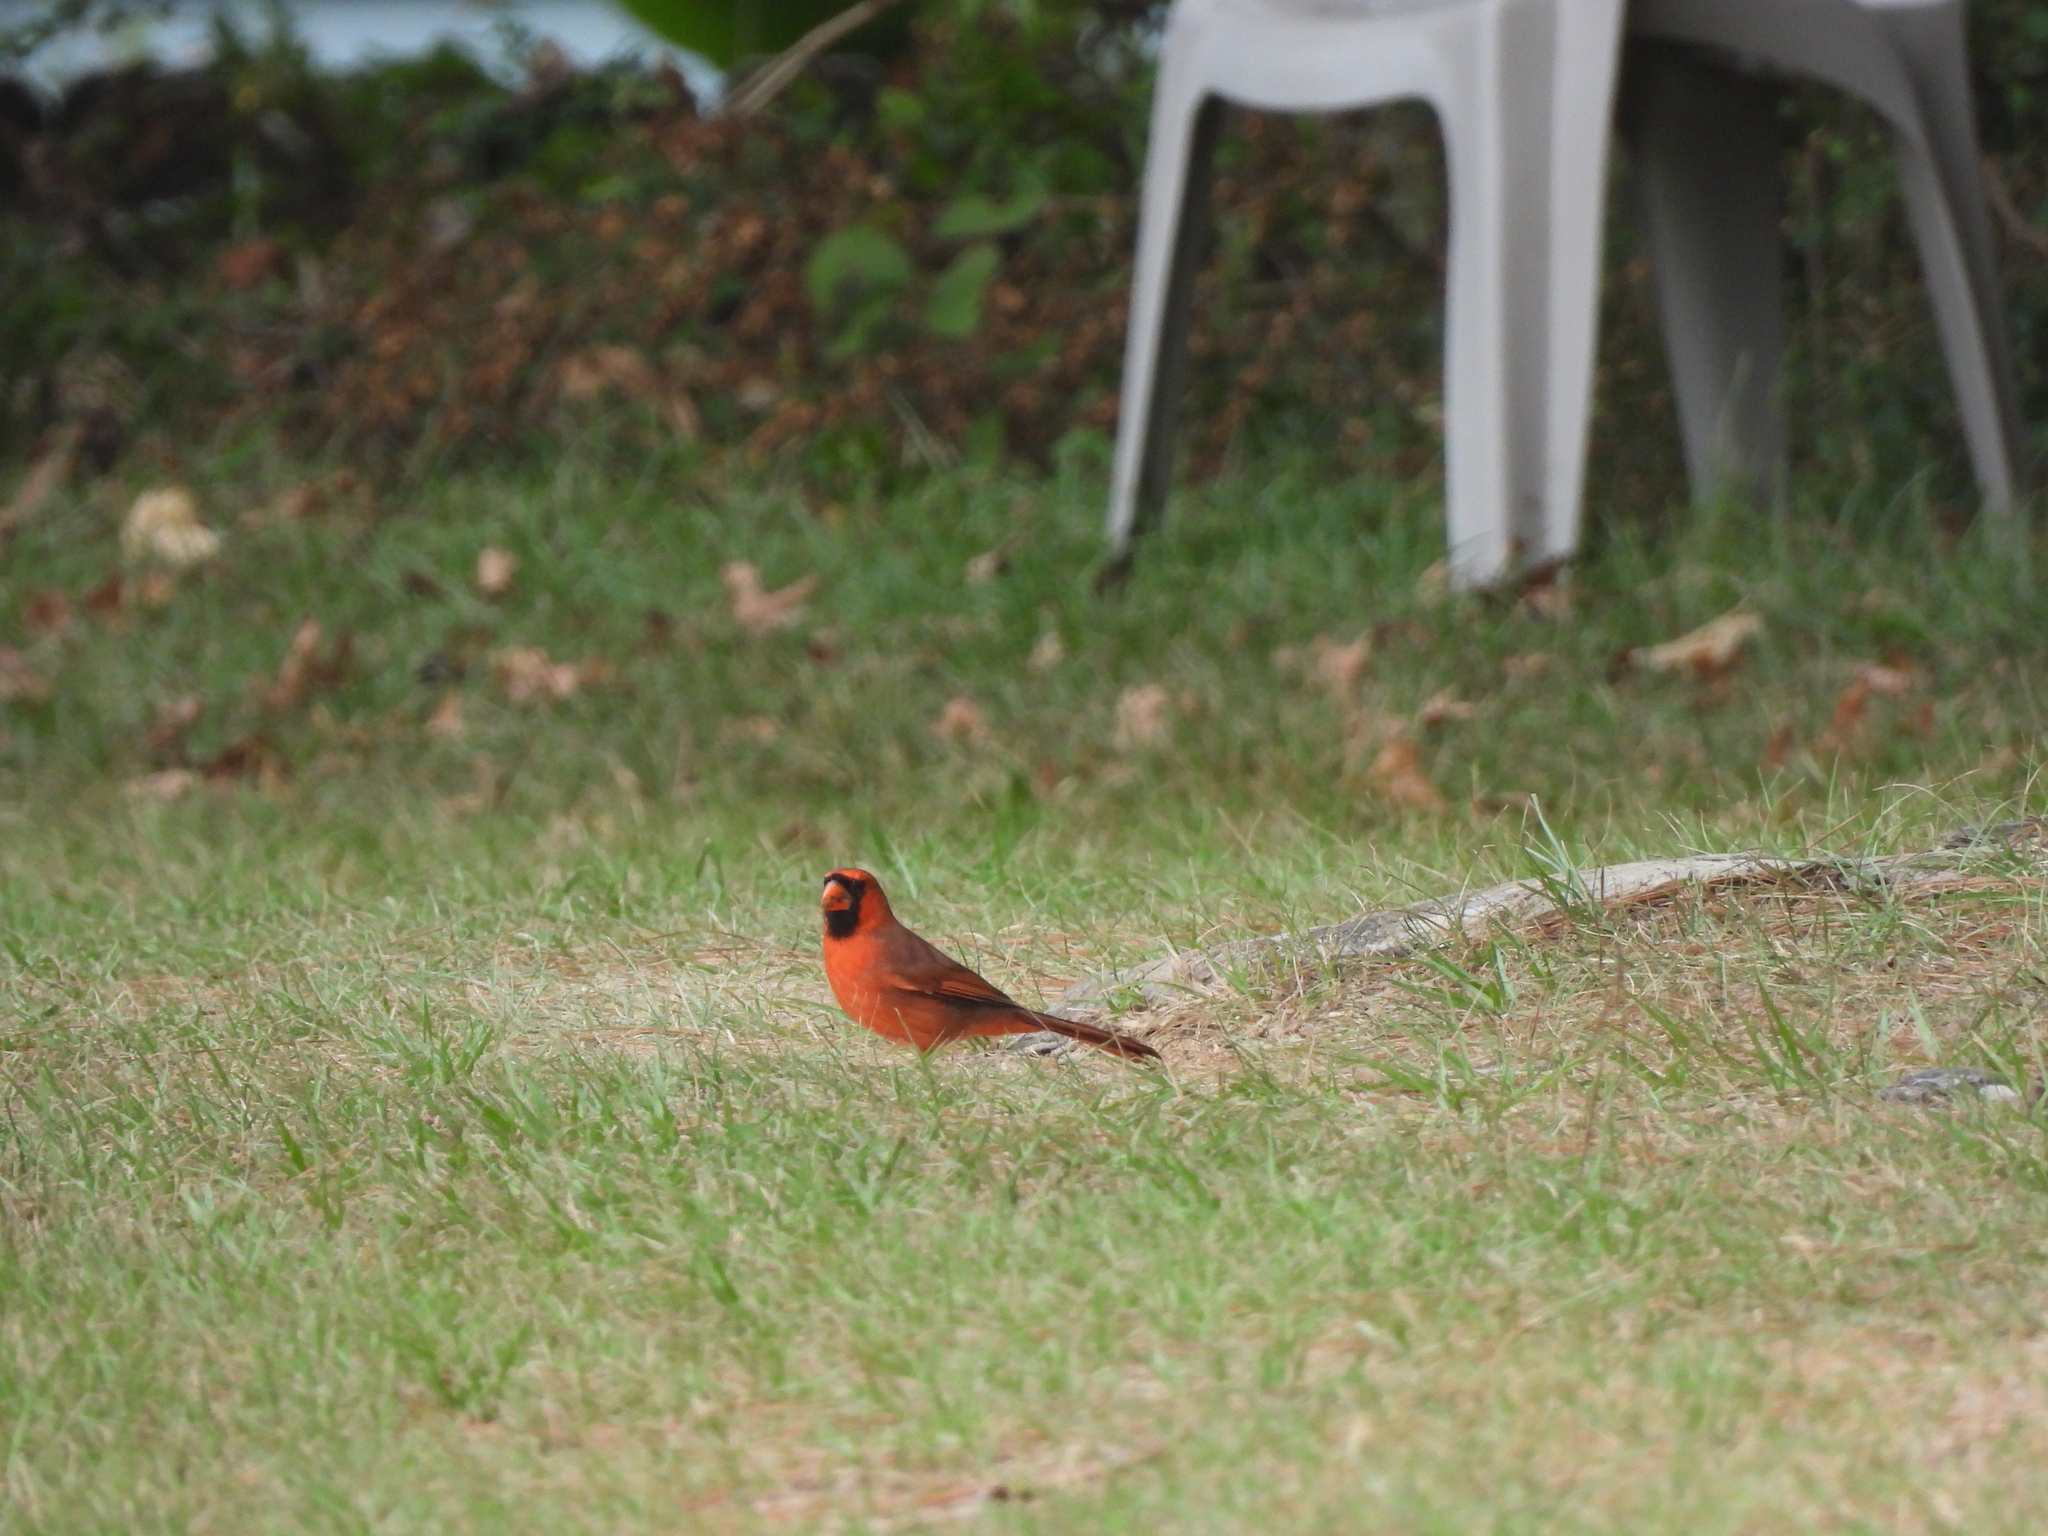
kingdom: Animalia
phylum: Chordata
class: Aves
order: Passeriformes
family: Cardinalidae
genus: Cardinalis
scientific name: Cardinalis cardinalis
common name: Northern cardinal
